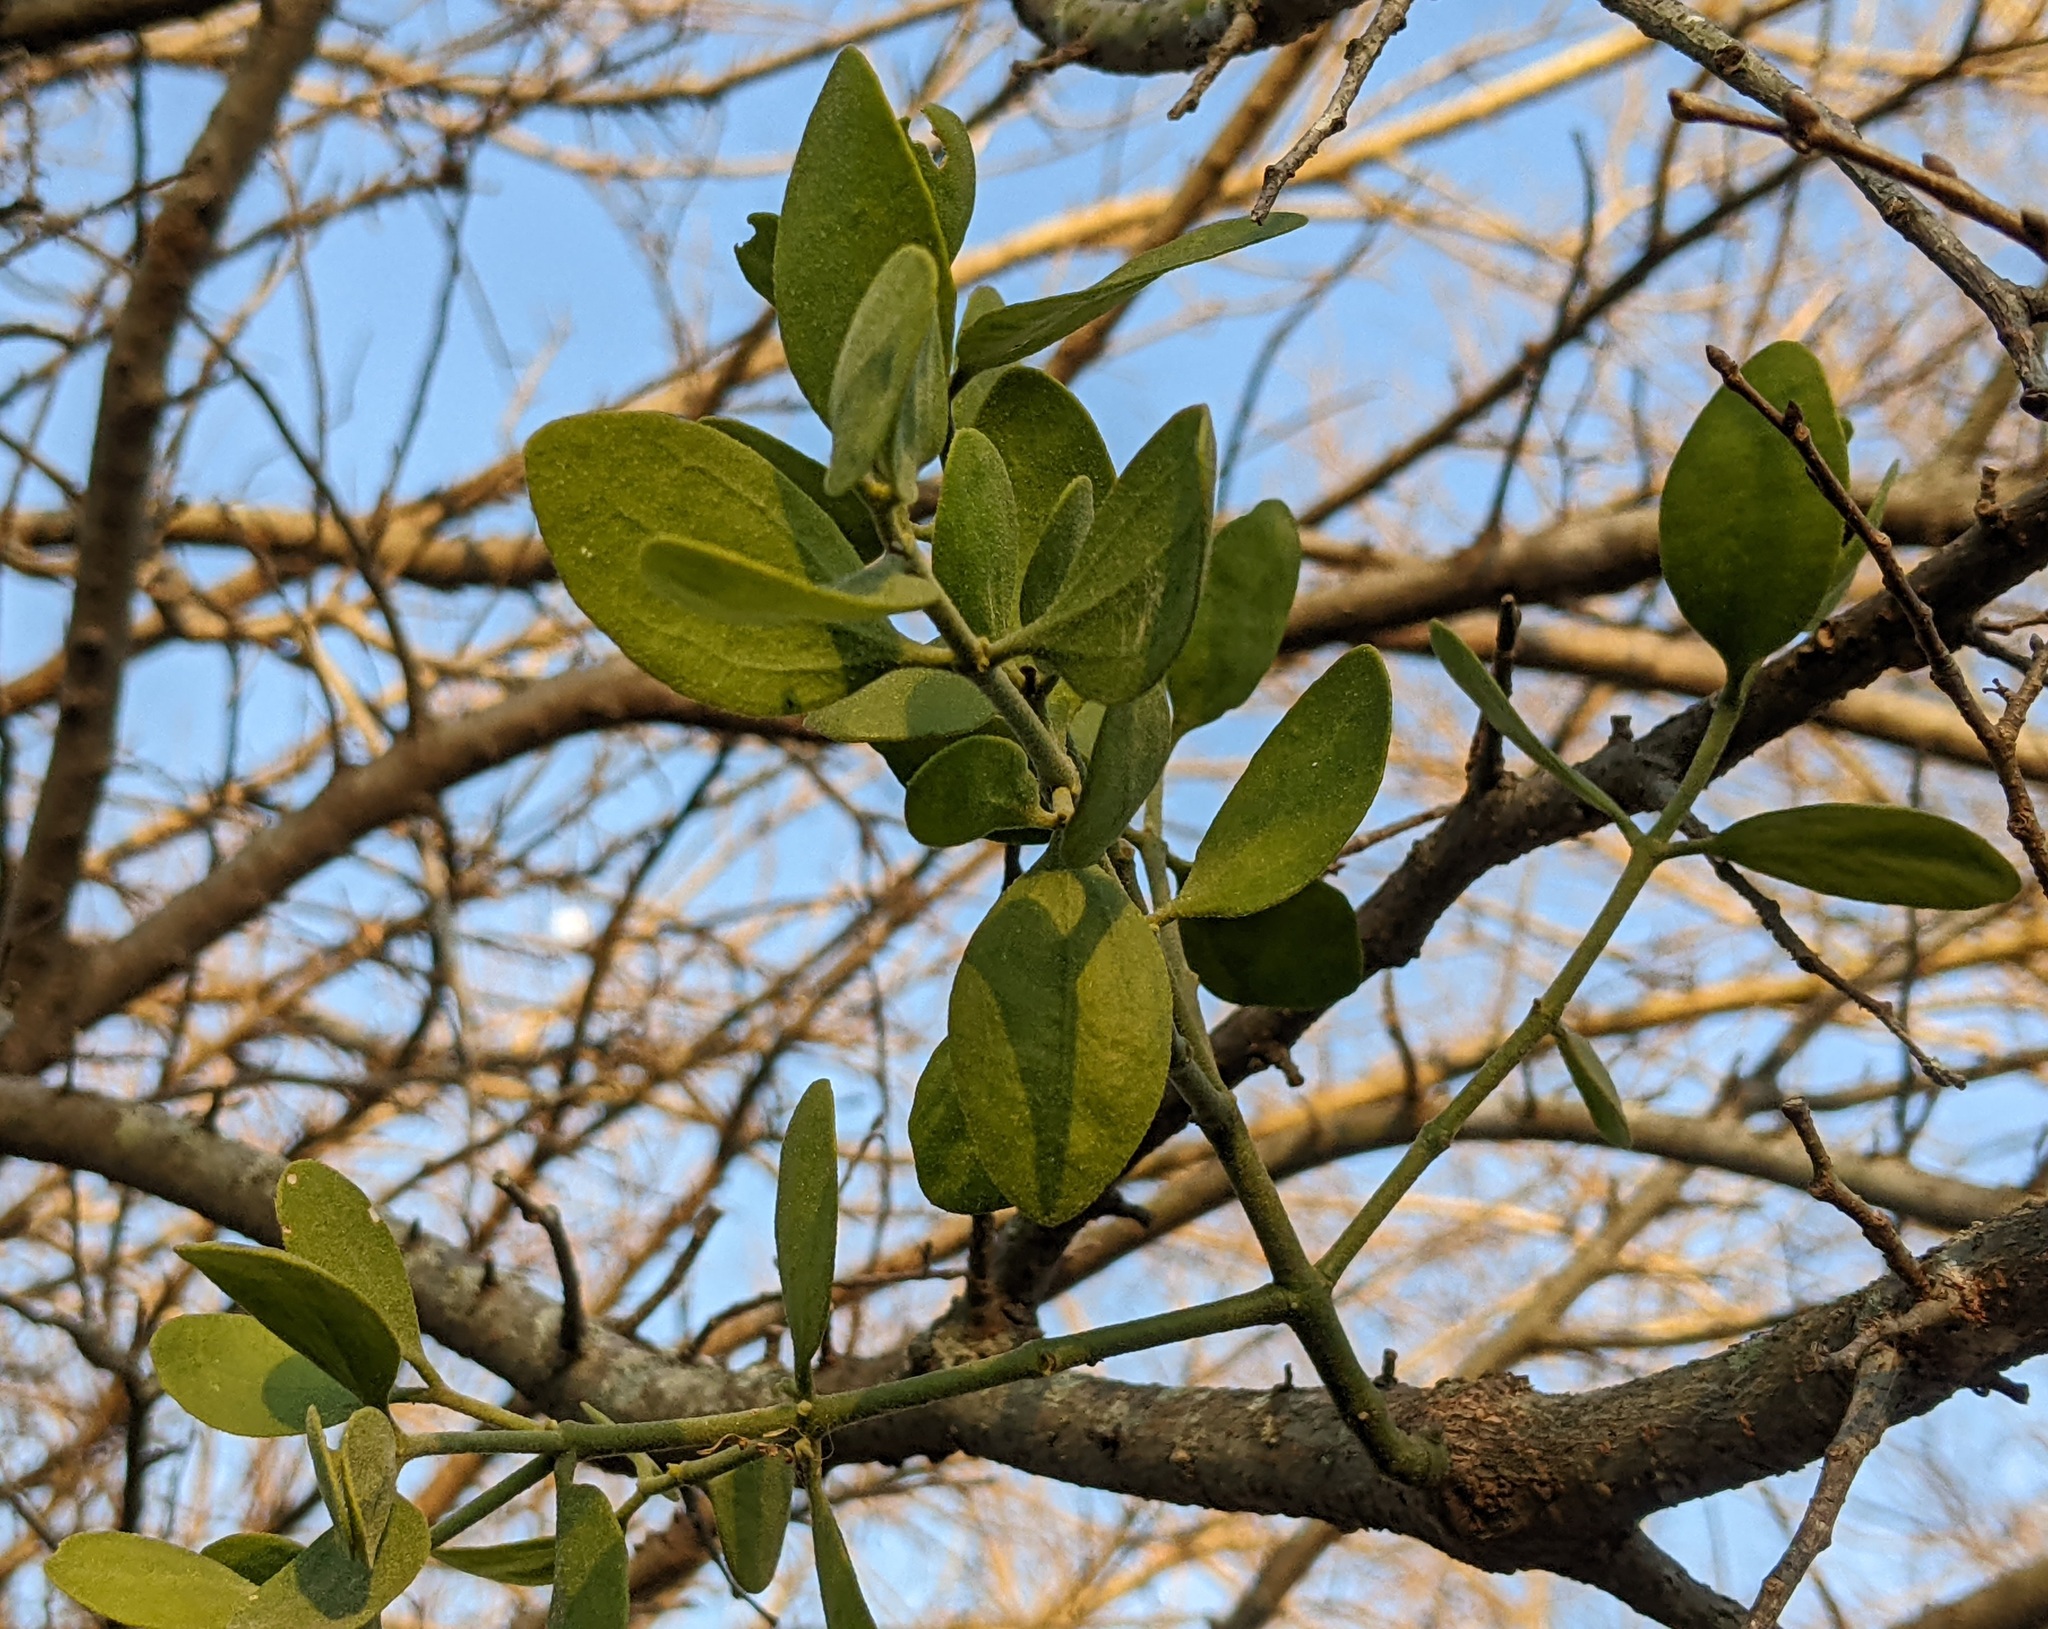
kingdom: Plantae
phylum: Tracheophyta
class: Magnoliopsida
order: Santalales
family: Viscaceae
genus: Phoradendron
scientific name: Phoradendron leucarpum
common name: Pacific mistletoe
